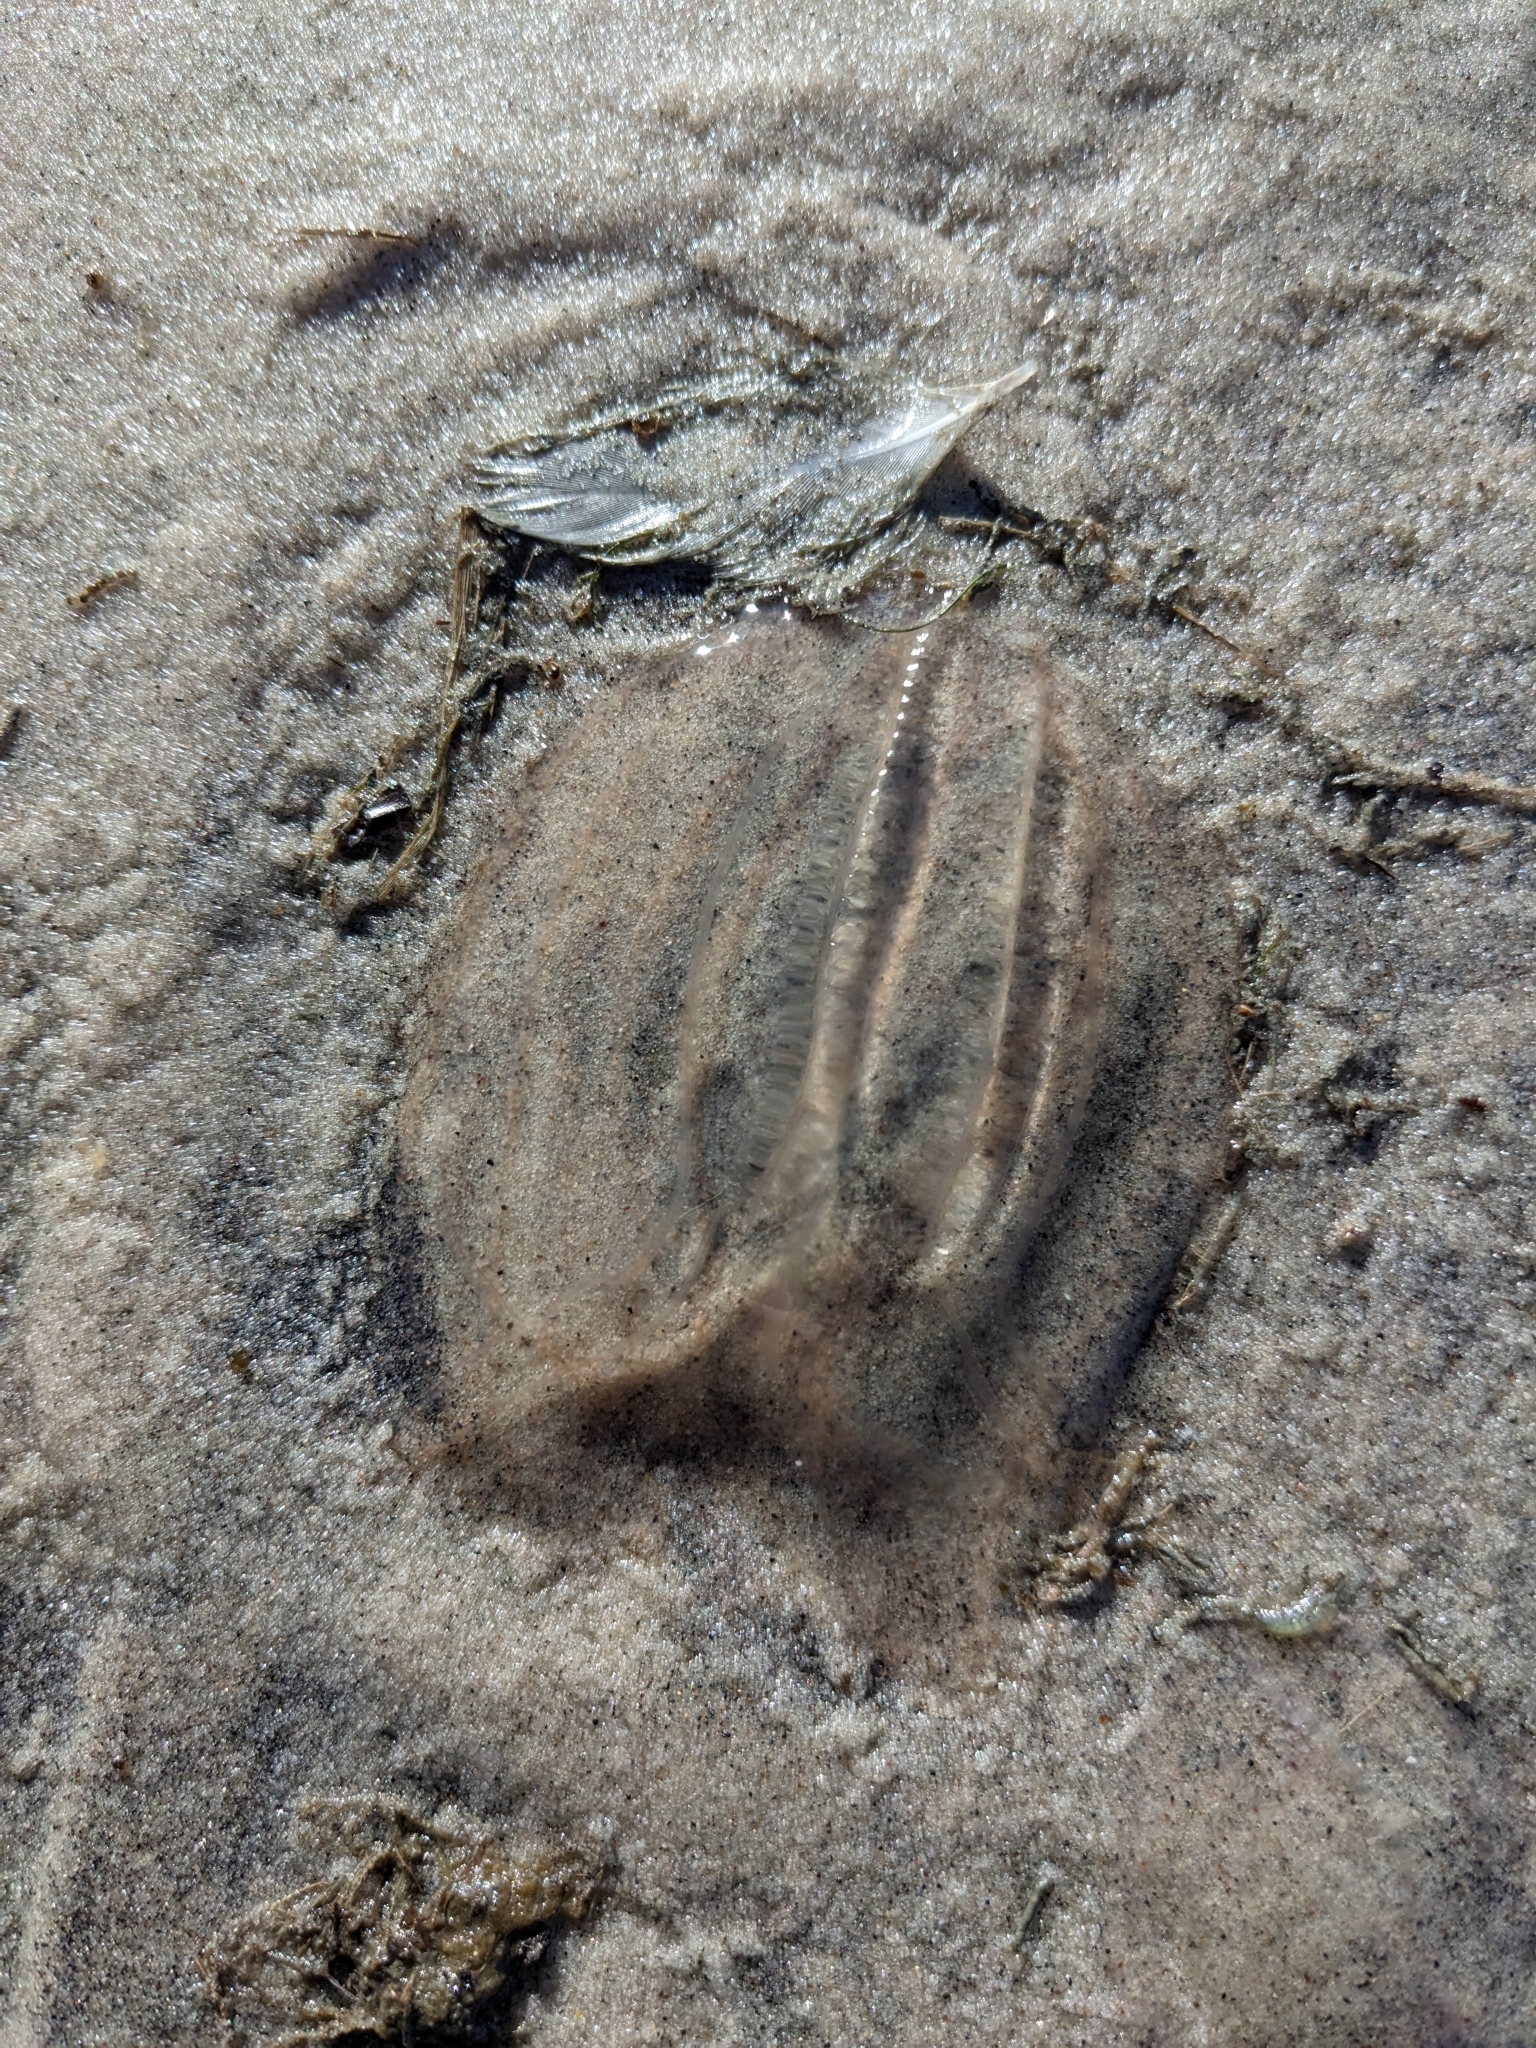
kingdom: Animalia
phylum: Ctenophora
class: Tentaculata
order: Lobata
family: Bolinopsidae
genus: Mnemiopsis
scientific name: Mnemiopsis leidyi
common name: American comb jelly
